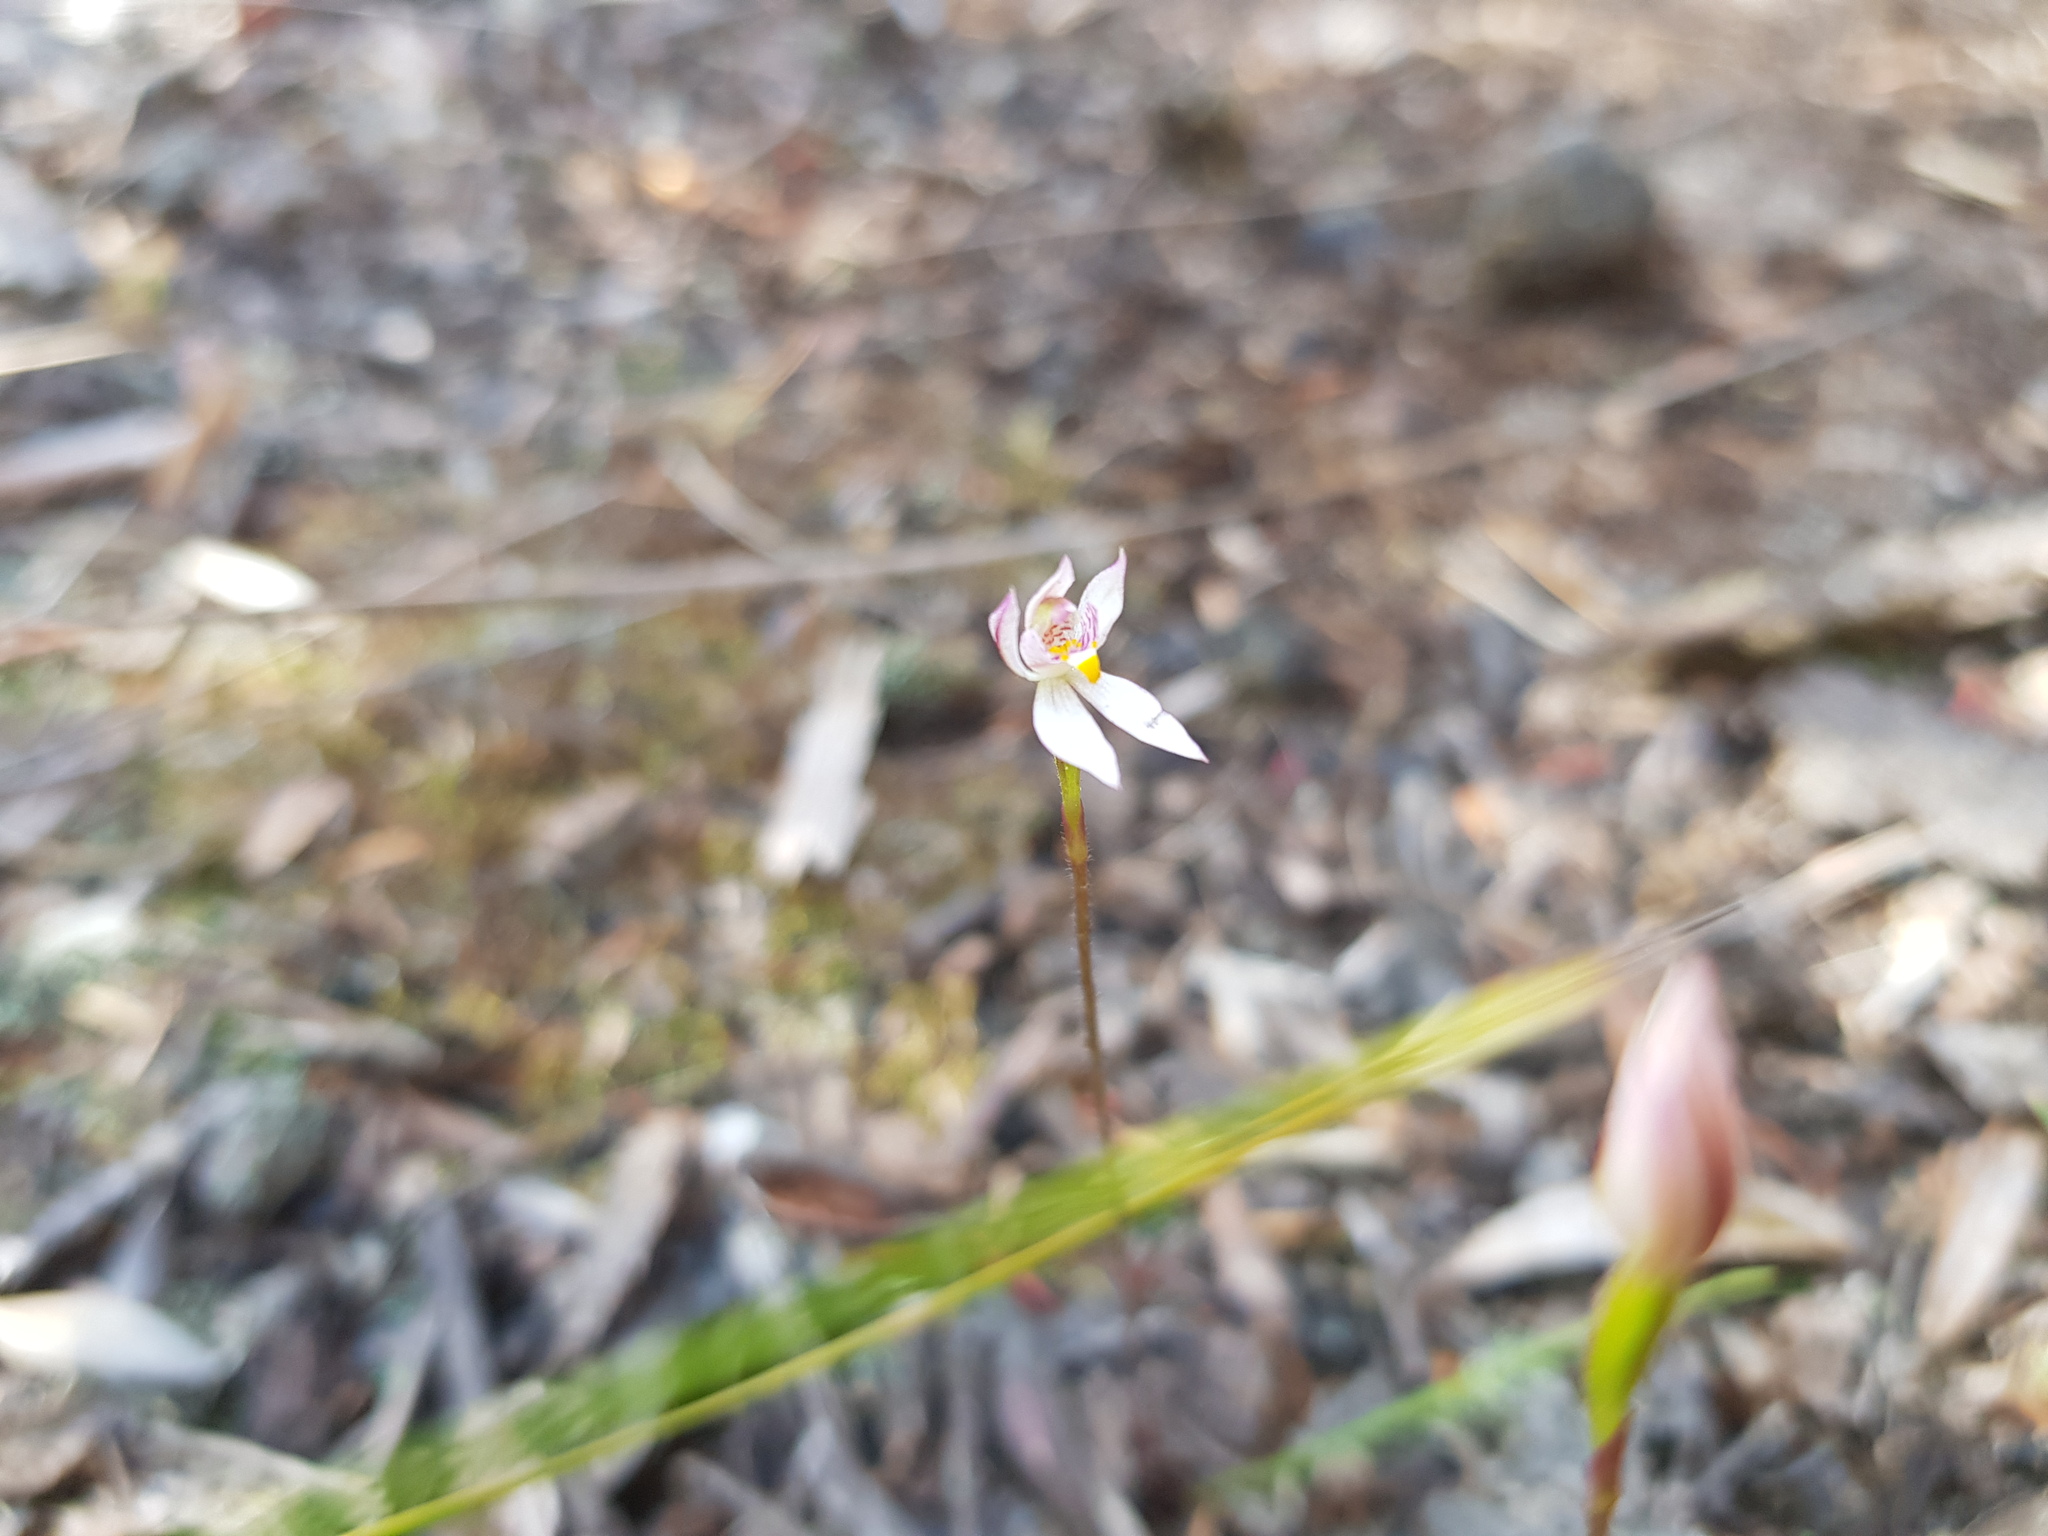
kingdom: Plantae
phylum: Tracheophyta
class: Liliopsida
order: Asparagales
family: Orchidaceae
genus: Caladenia
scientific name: Caladenia alata
